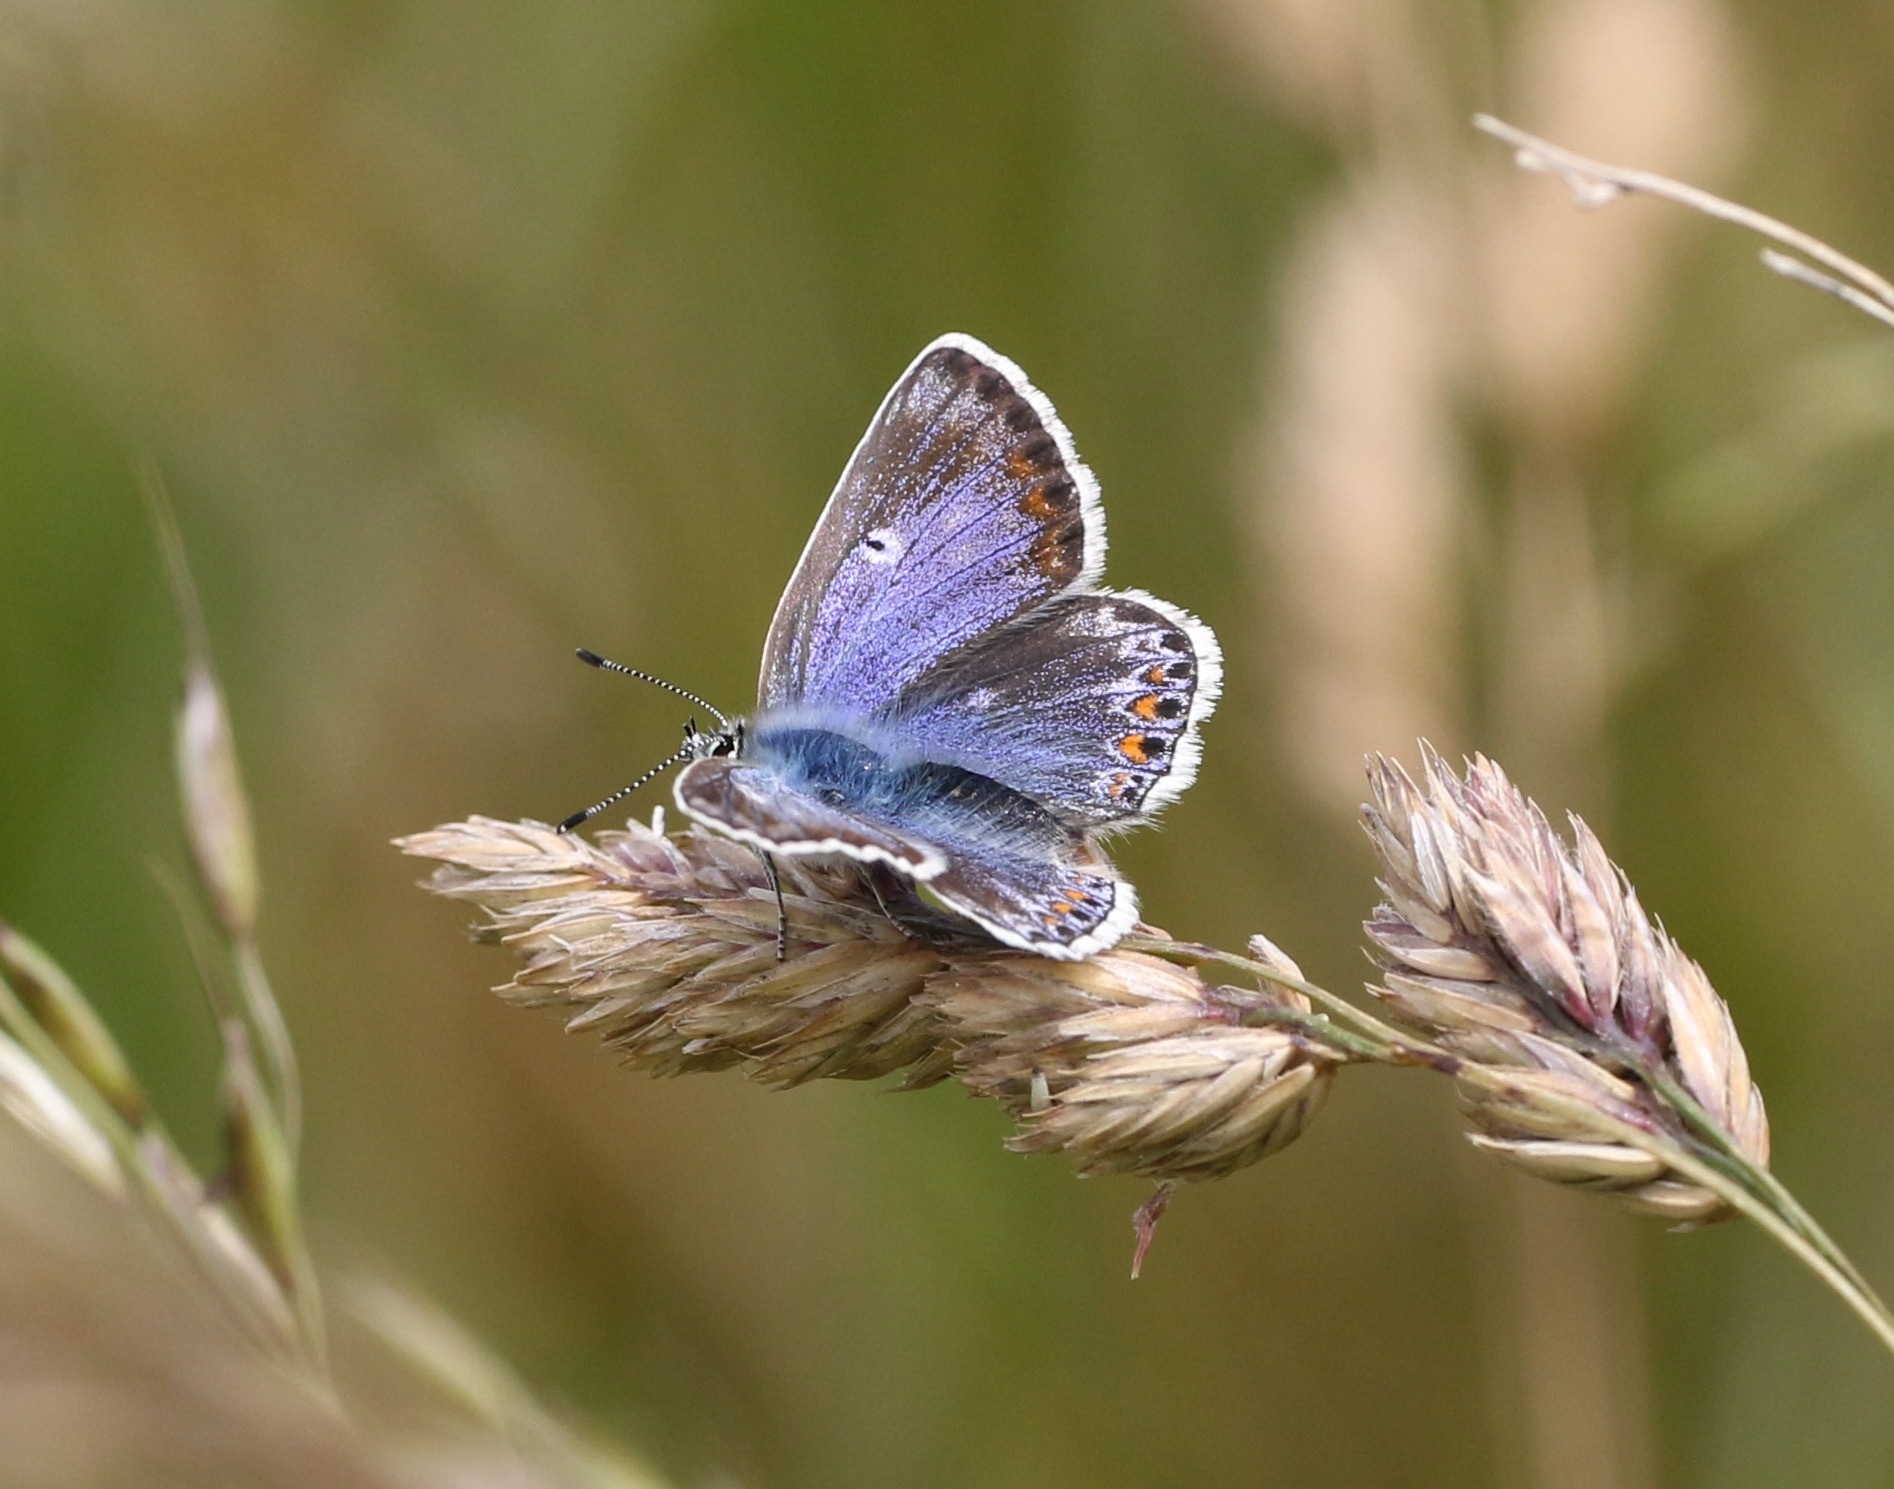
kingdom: Animalia
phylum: Arthropoda
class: Insecta
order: Lepidoptera
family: Lycaenidae
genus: Polyommatus
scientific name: Polyommatus icarus
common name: Common blue
